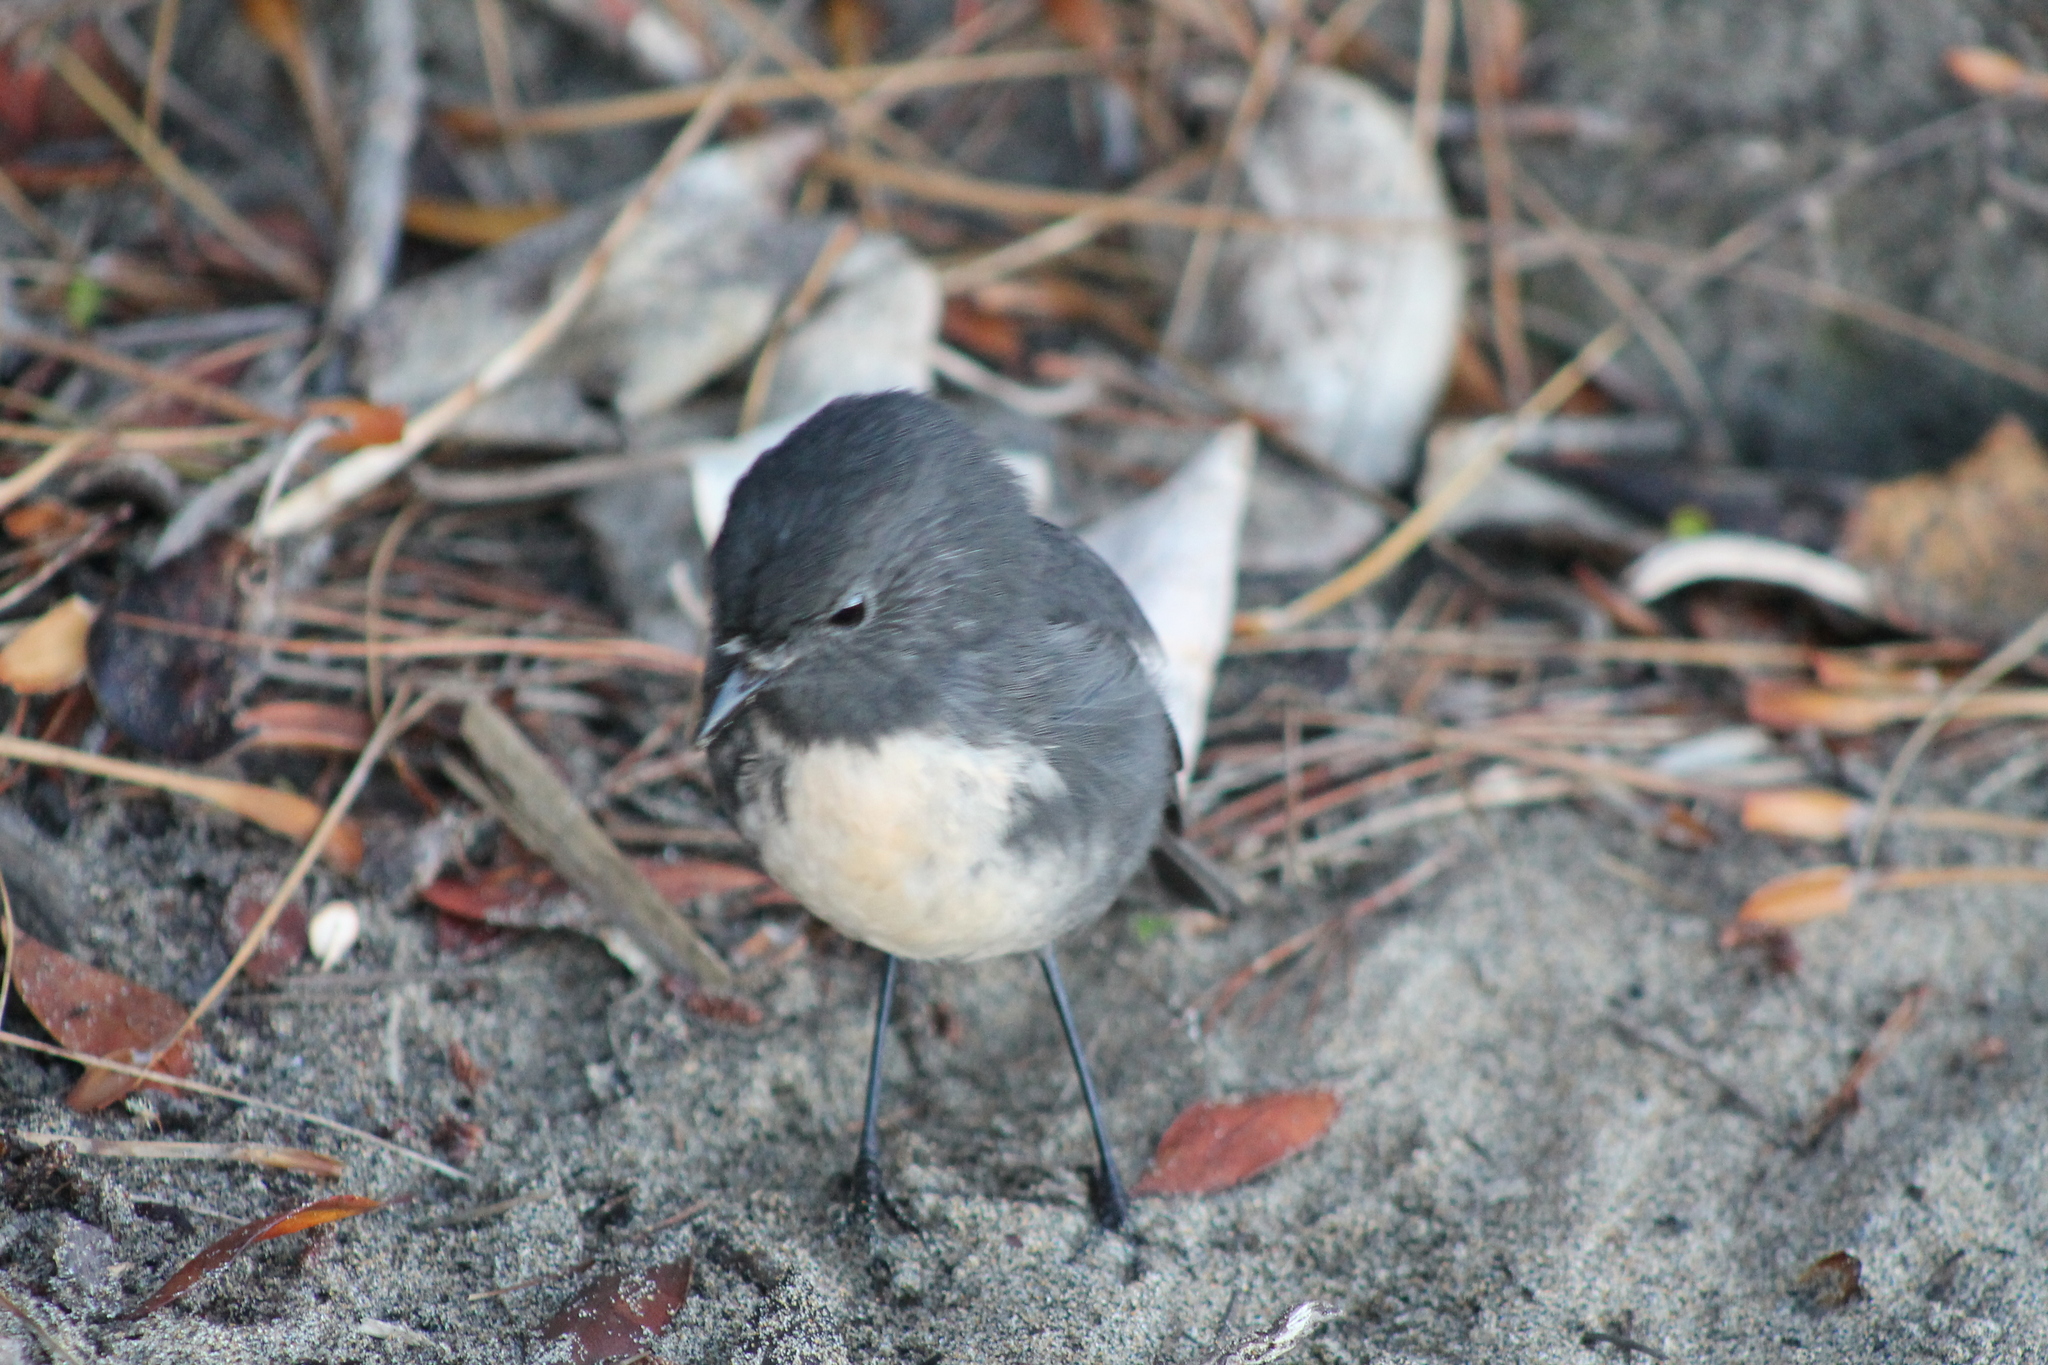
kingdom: Animalia
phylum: Chordata
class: Aves
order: Passeriformes
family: Petroicidae
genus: Petroica
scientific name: Petroica australis
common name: New zealand robin
